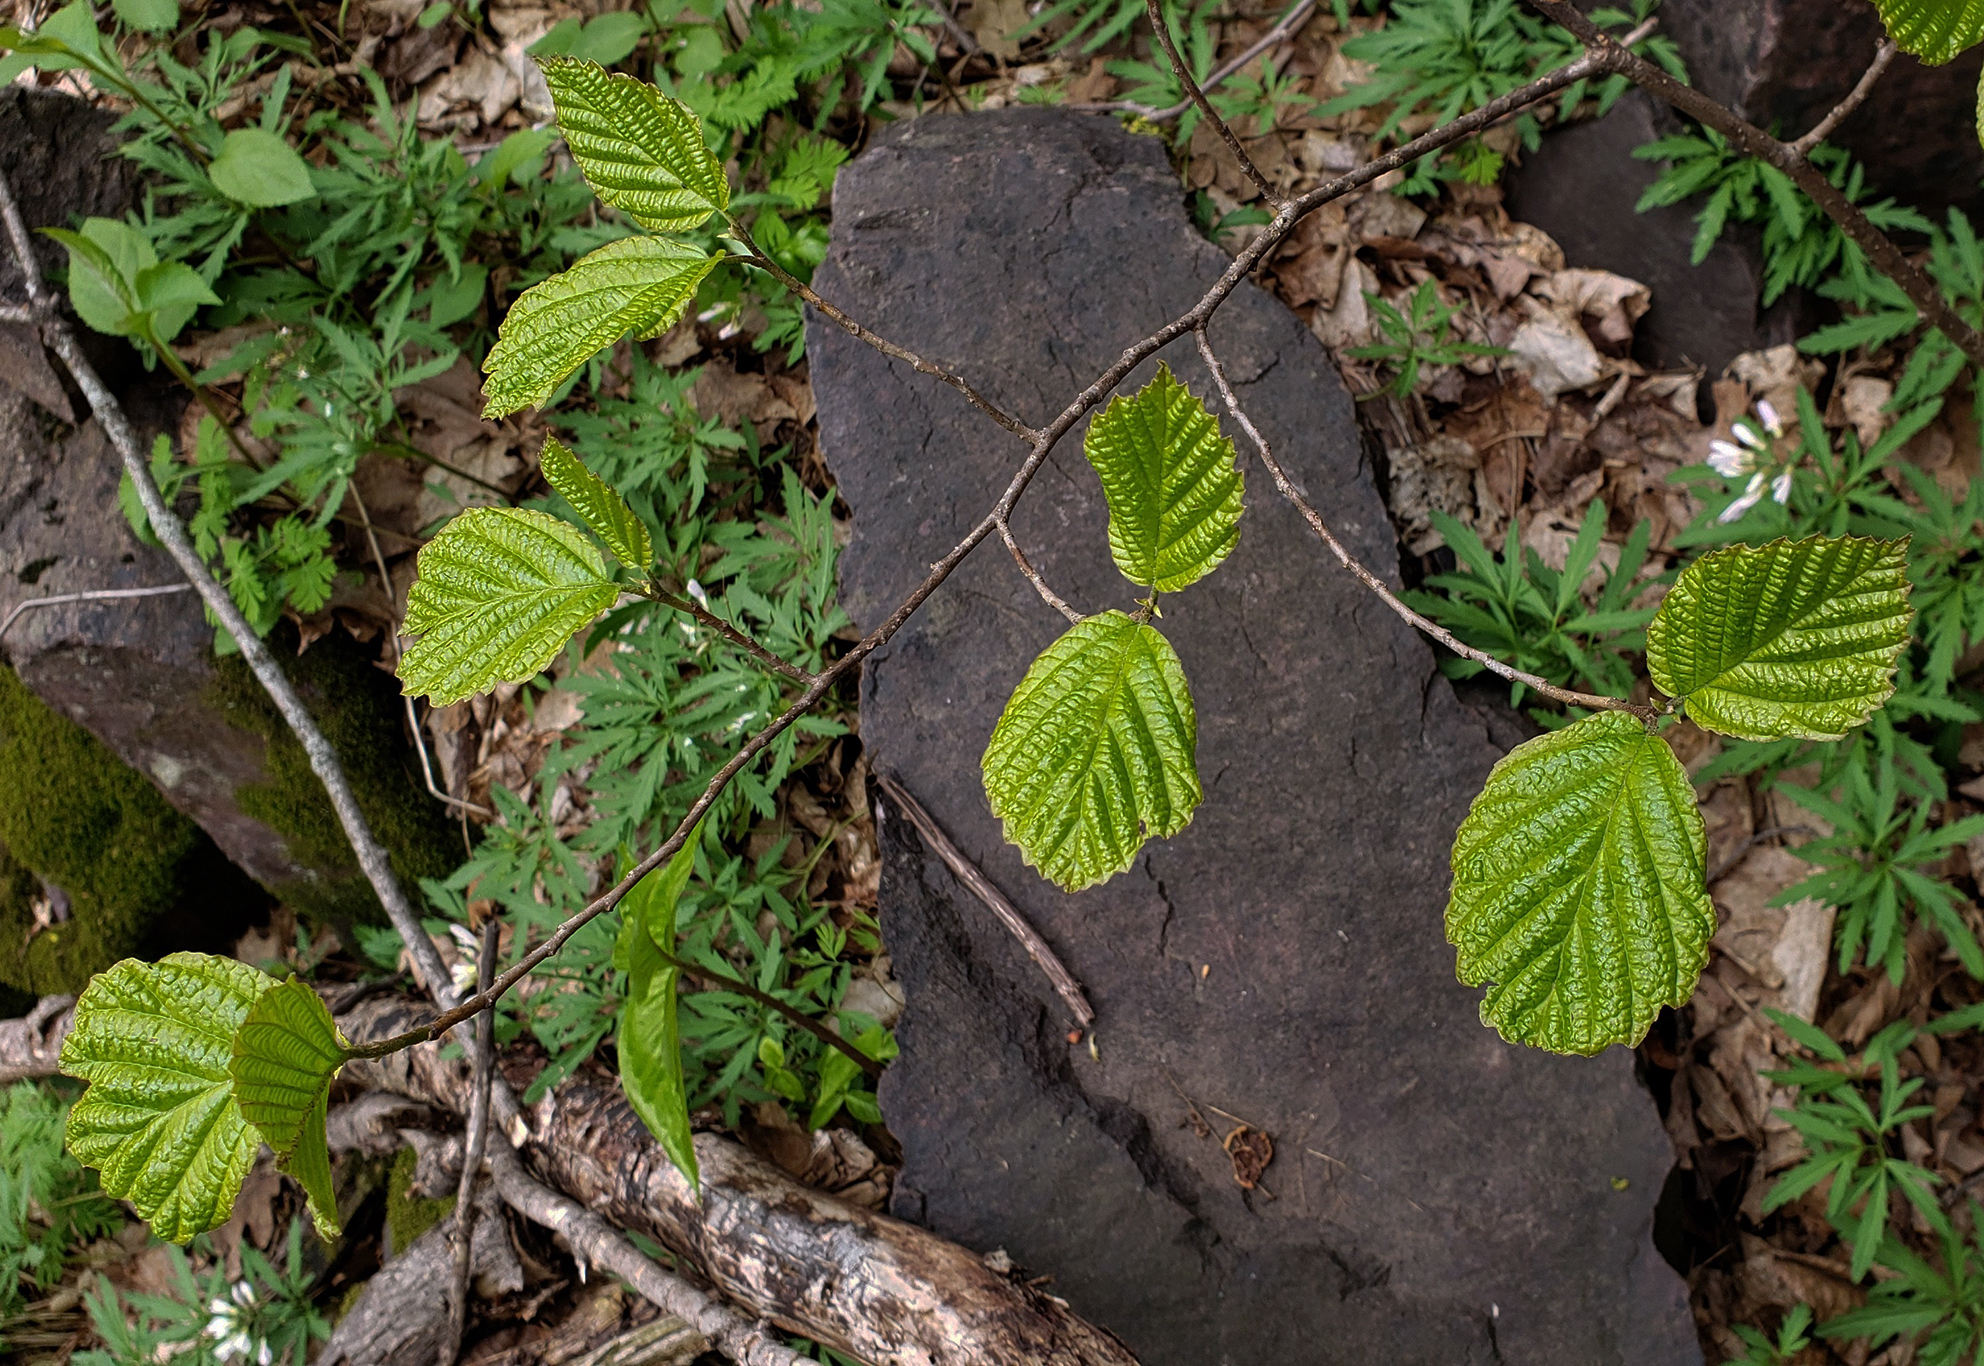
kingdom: Plantae
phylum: Tracheophyta
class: Magnoliopsida
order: Saxifragales
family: Hamamelidaceae
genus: Hamamelis
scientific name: Hamamelis virginiana
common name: Witch-hazel
